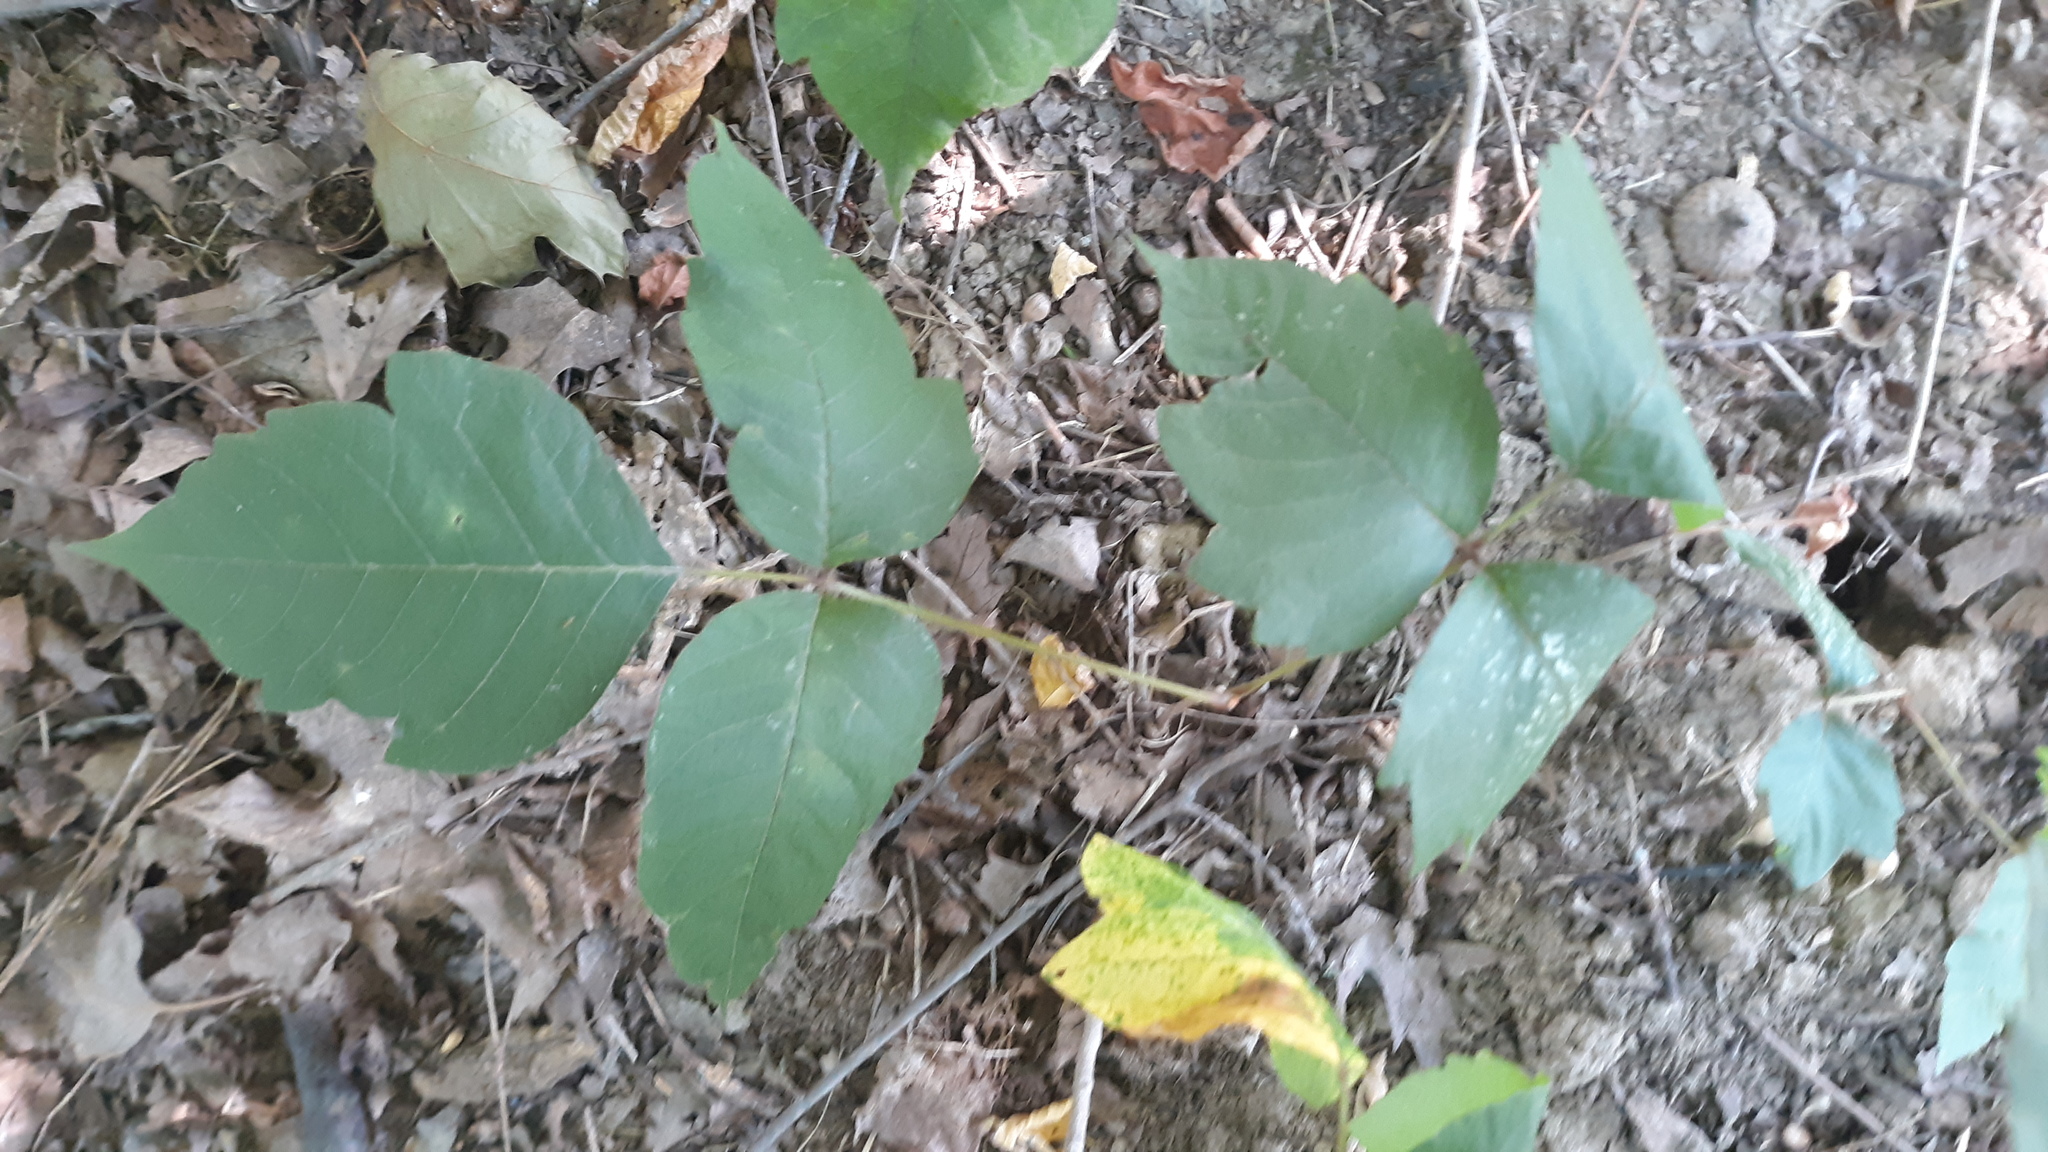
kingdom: Plantae
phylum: Tracheophyta
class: Magnoliopsida
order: Sapindales
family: Anacardiaceae
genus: Toxicodendron
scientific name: Toxicodendron radicans
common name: Poison ivy
